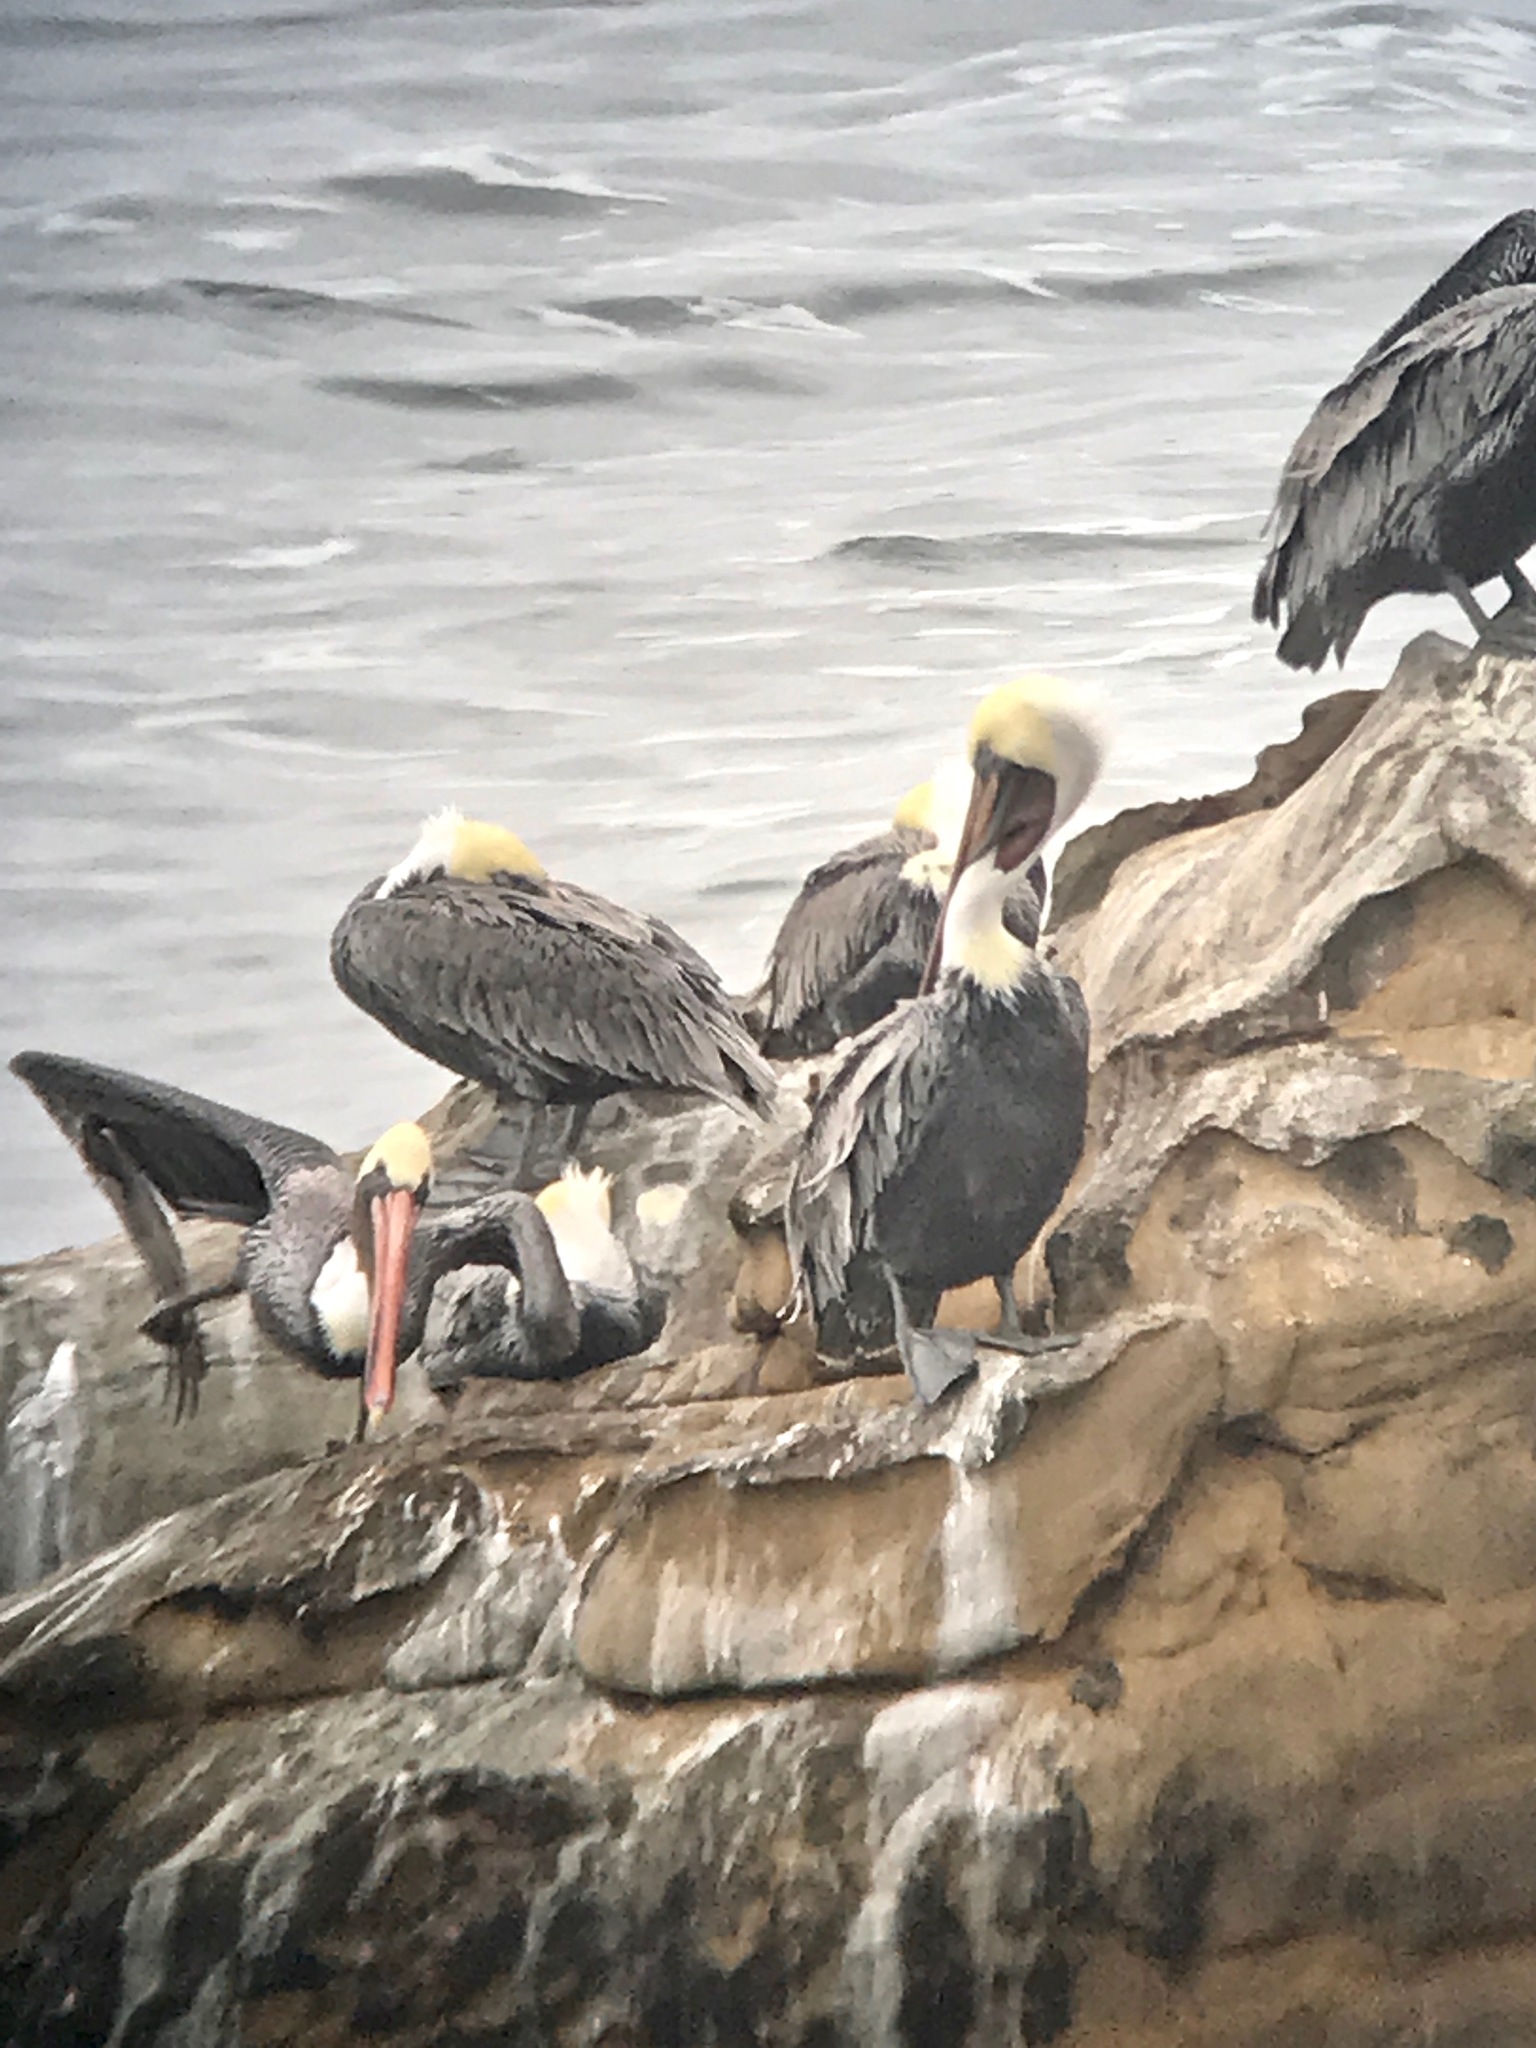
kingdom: Animalia
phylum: Chordata
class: Aves
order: Pelecaniformes
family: Pelecanidae
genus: Pelecanus
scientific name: Pelecanus occidentalis
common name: Brown pelican
